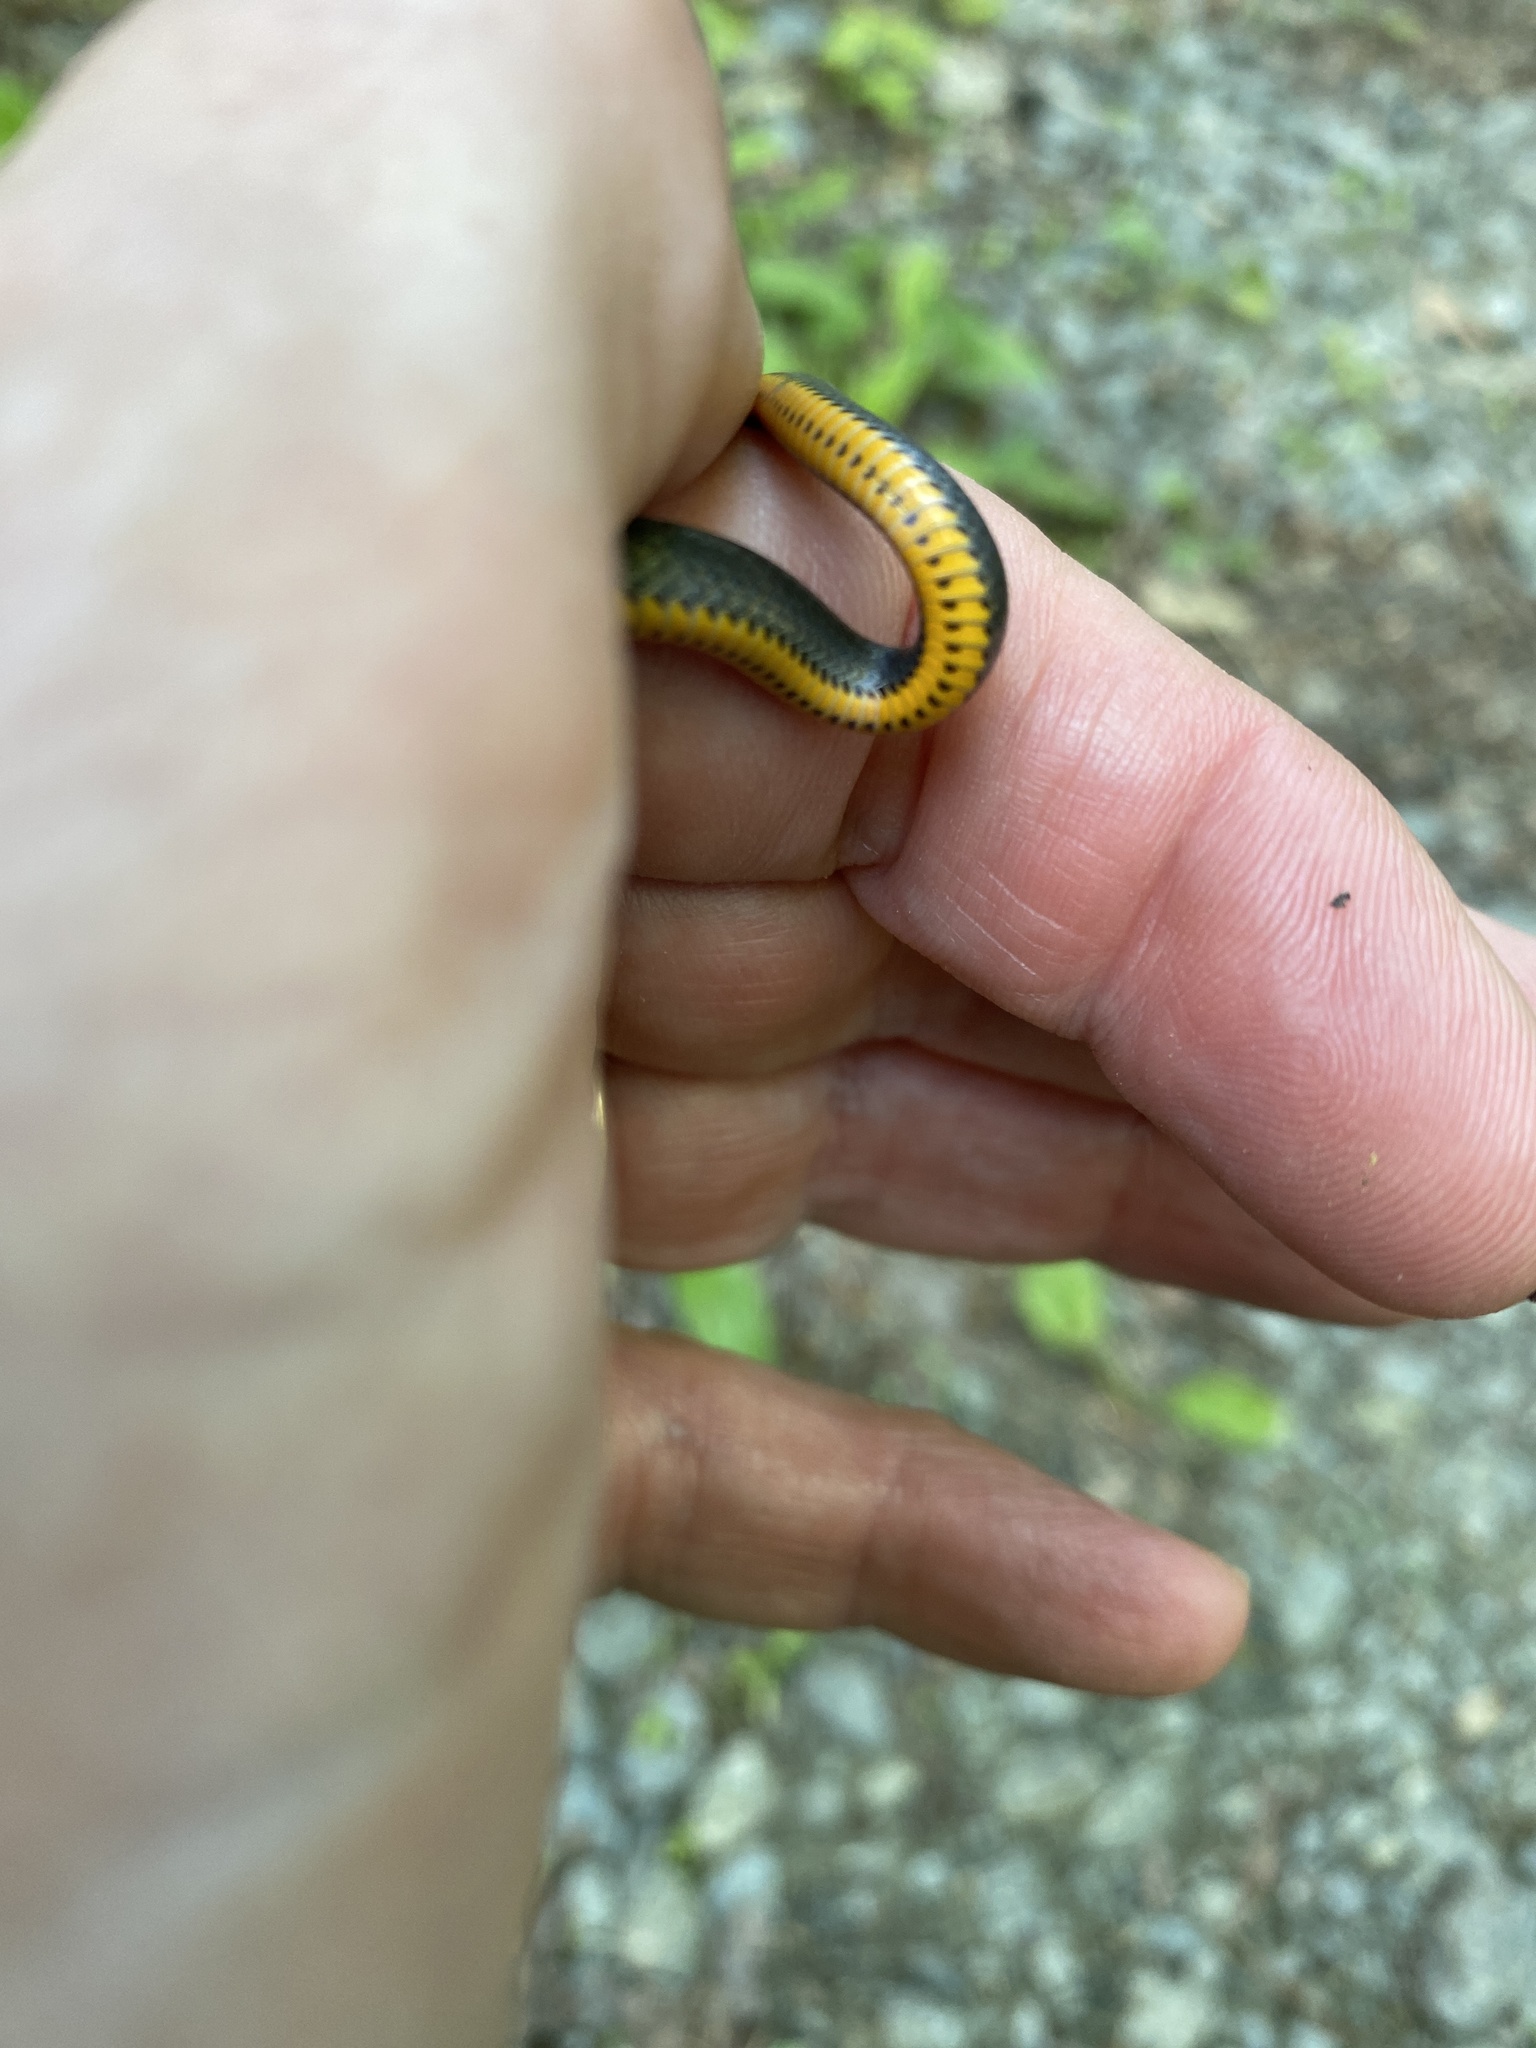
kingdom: Animalia
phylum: Chordata
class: Squamata
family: Colubridae
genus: Diadophis
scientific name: Diadophis punctatus
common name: Ringneck snake
